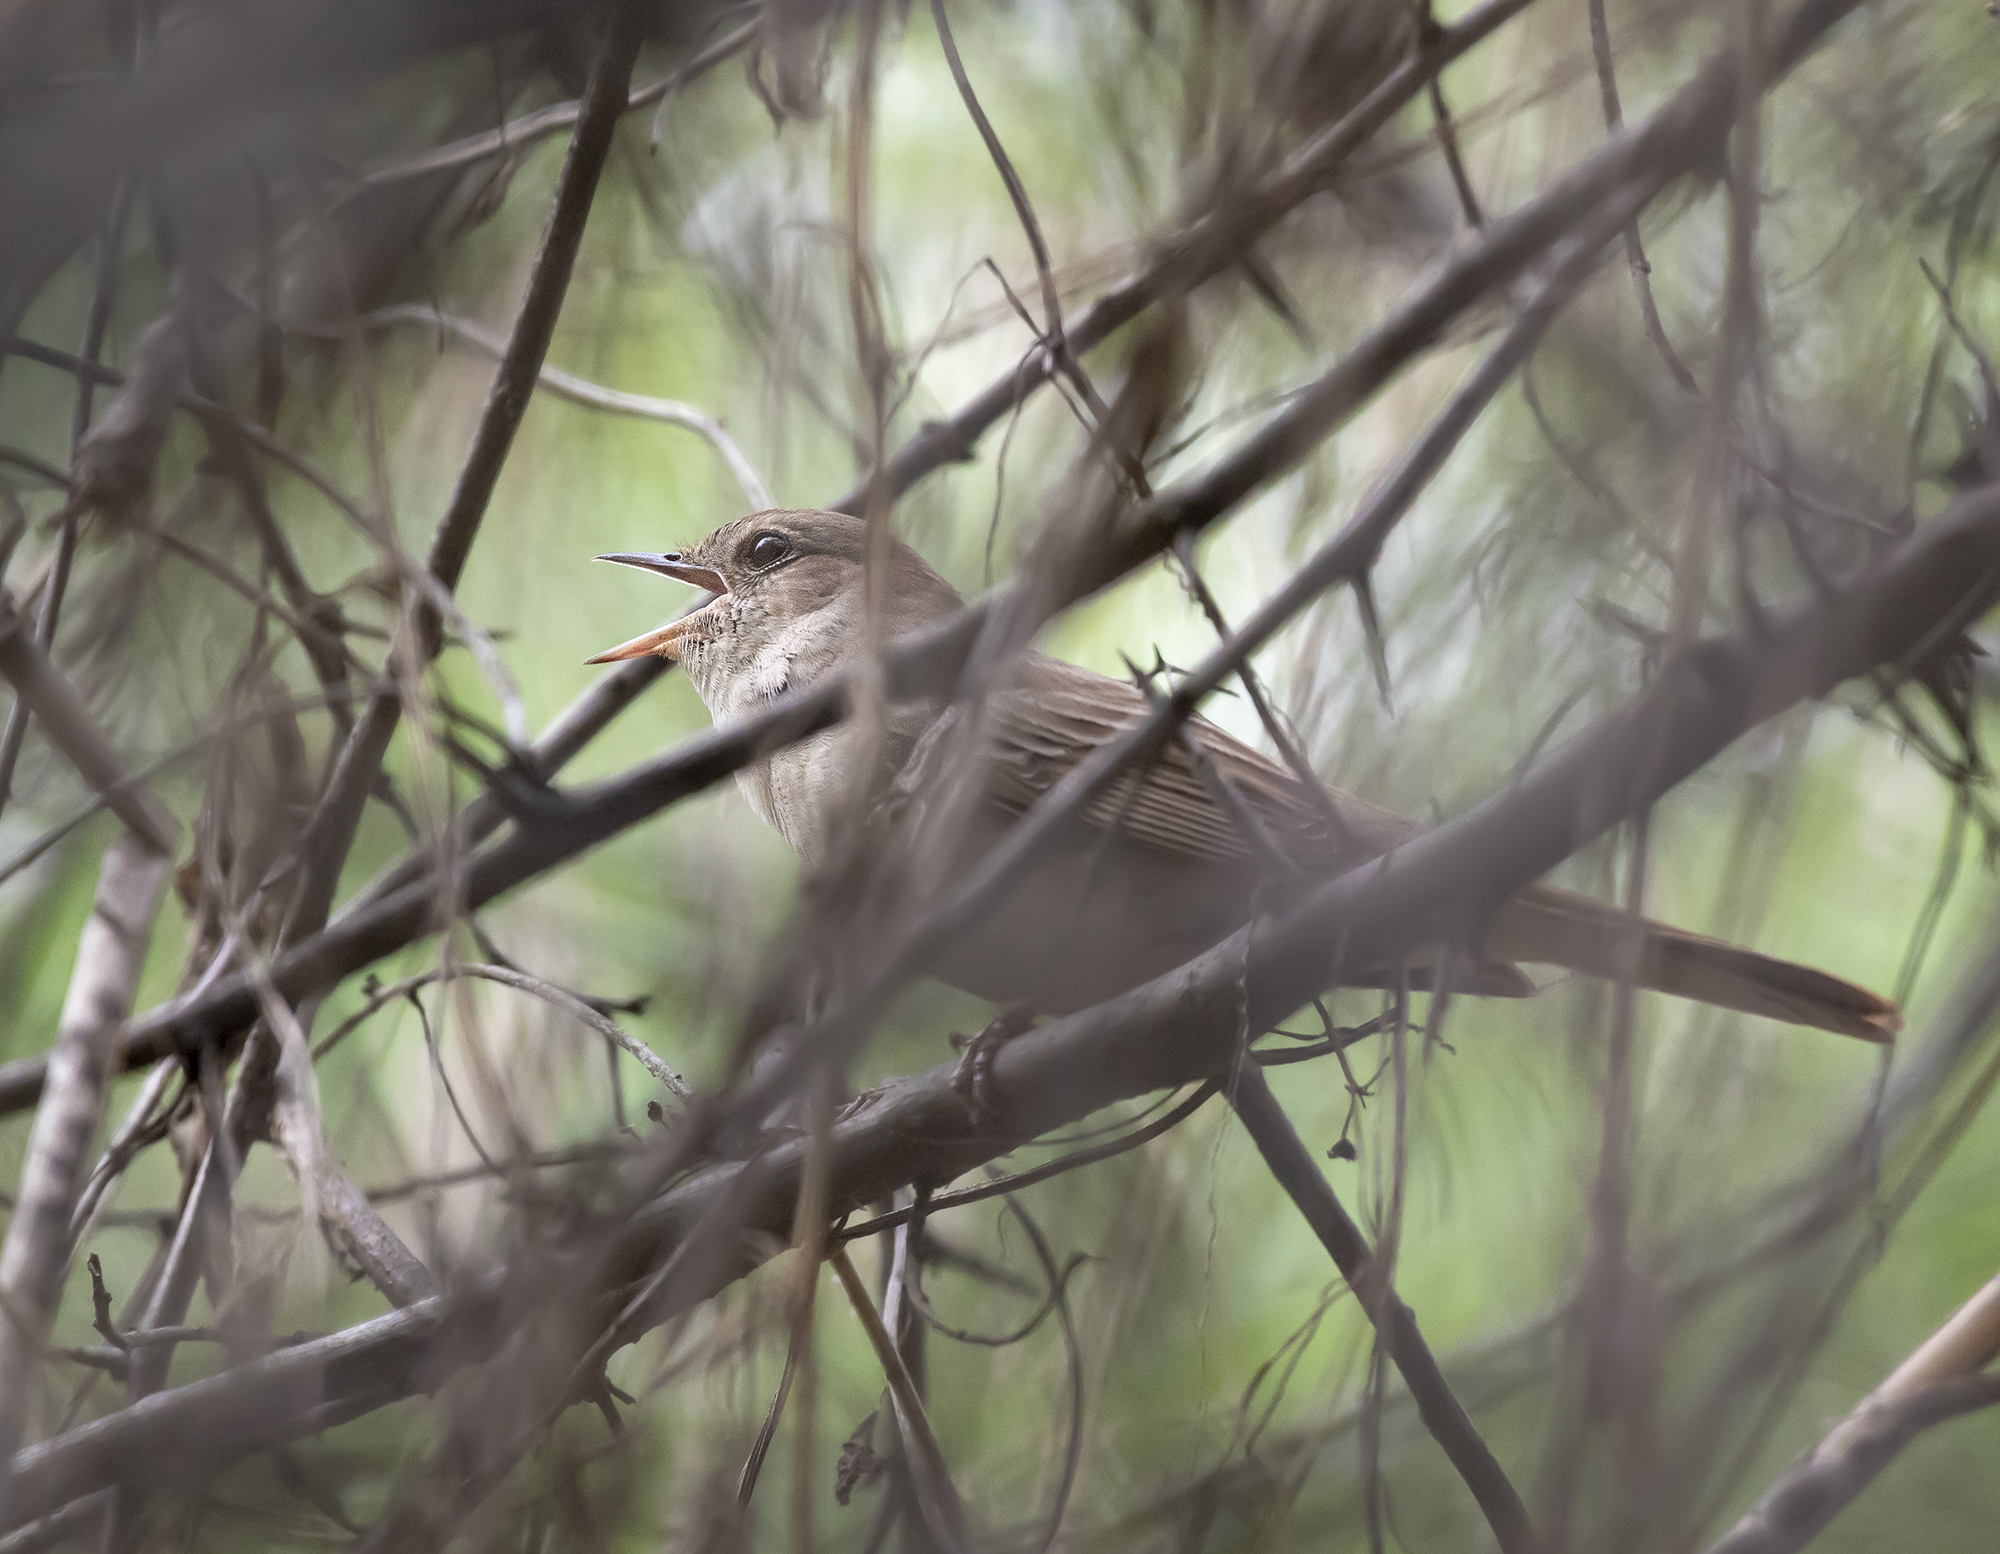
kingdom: Animalia
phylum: Chordata
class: Aves
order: Passeriformes
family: Muscicapidae
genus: Luscinia
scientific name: Luscinia megarhynchos
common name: Common nightingale
